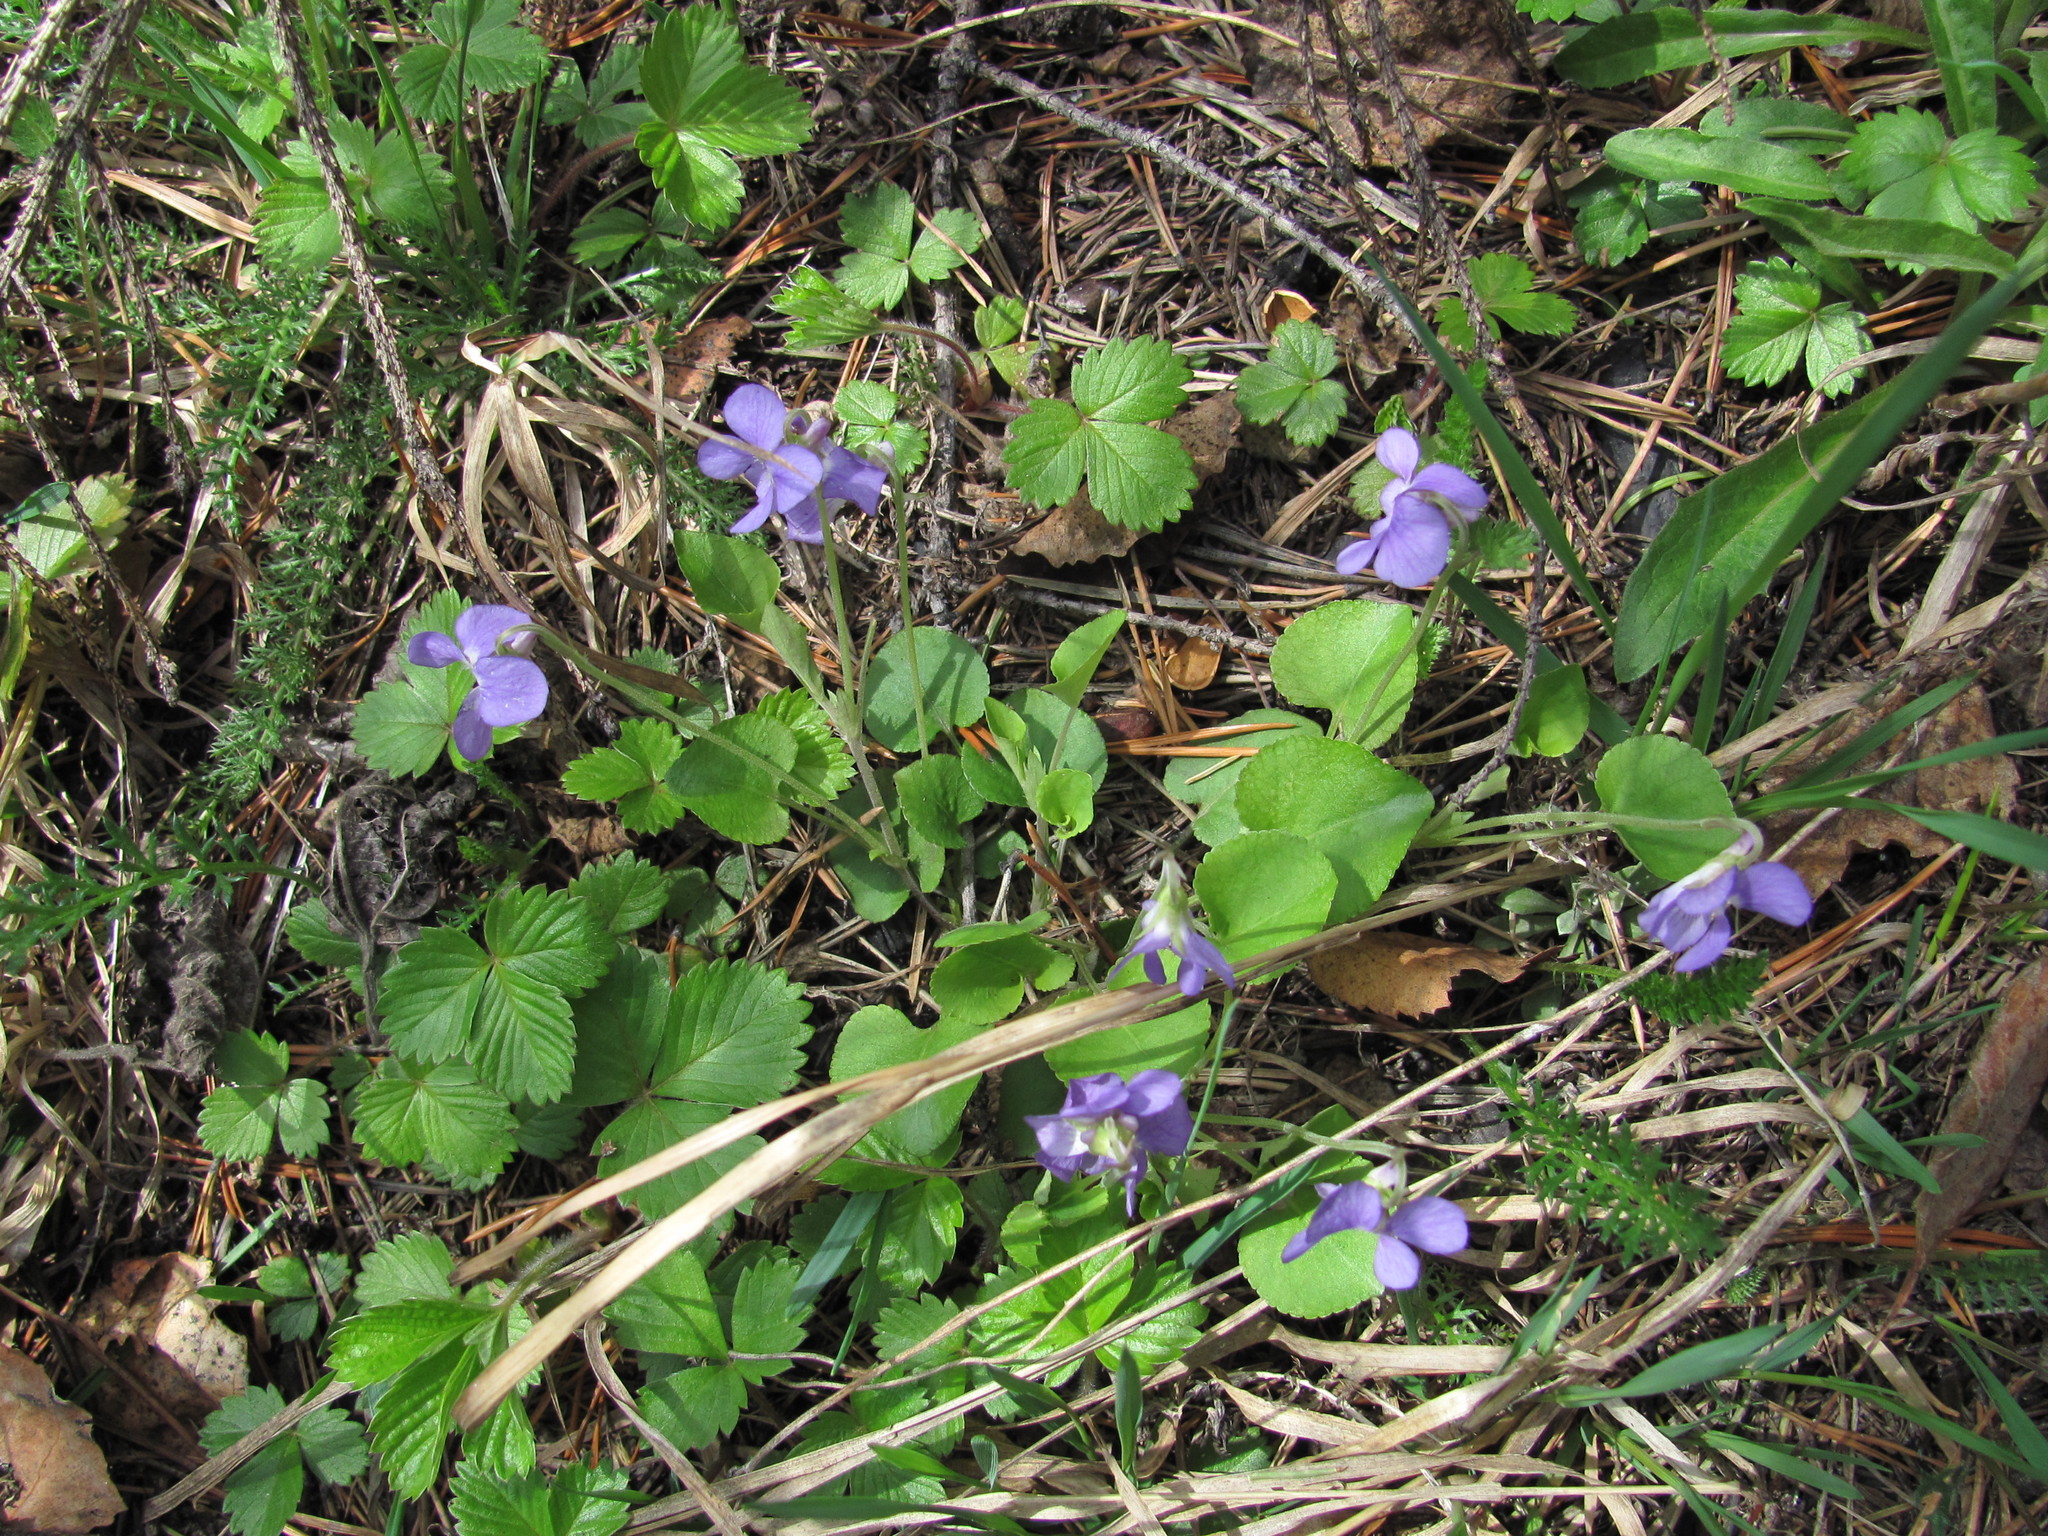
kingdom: Plantae
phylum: Tracheophyta
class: Magnoliopsida
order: Malpighiales
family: Violaceae
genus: Viola
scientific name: Viola rupestris
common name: Teesdale violet
